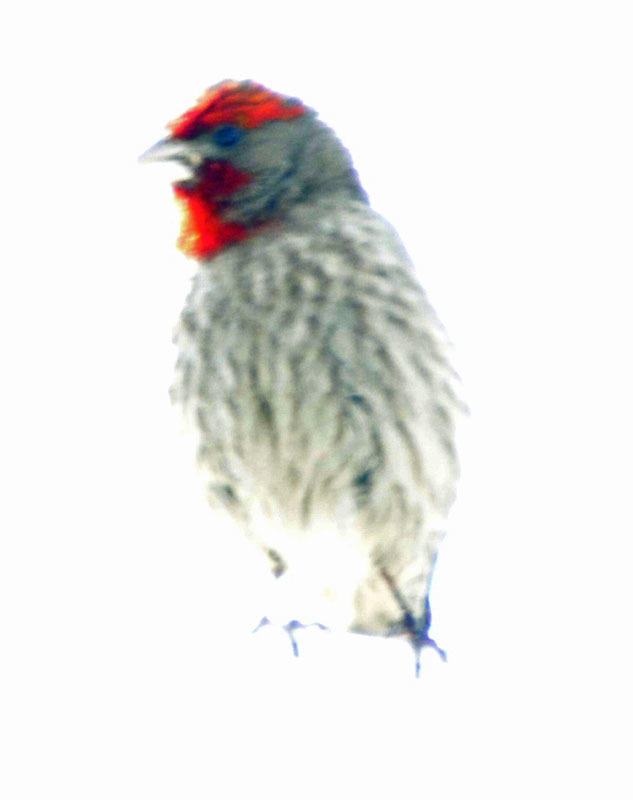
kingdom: Animalia
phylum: Chordata
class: Aves
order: Passeriformes
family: Fringillidae
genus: Haemorhous
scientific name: Haemorhous mexicanus
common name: House finch
